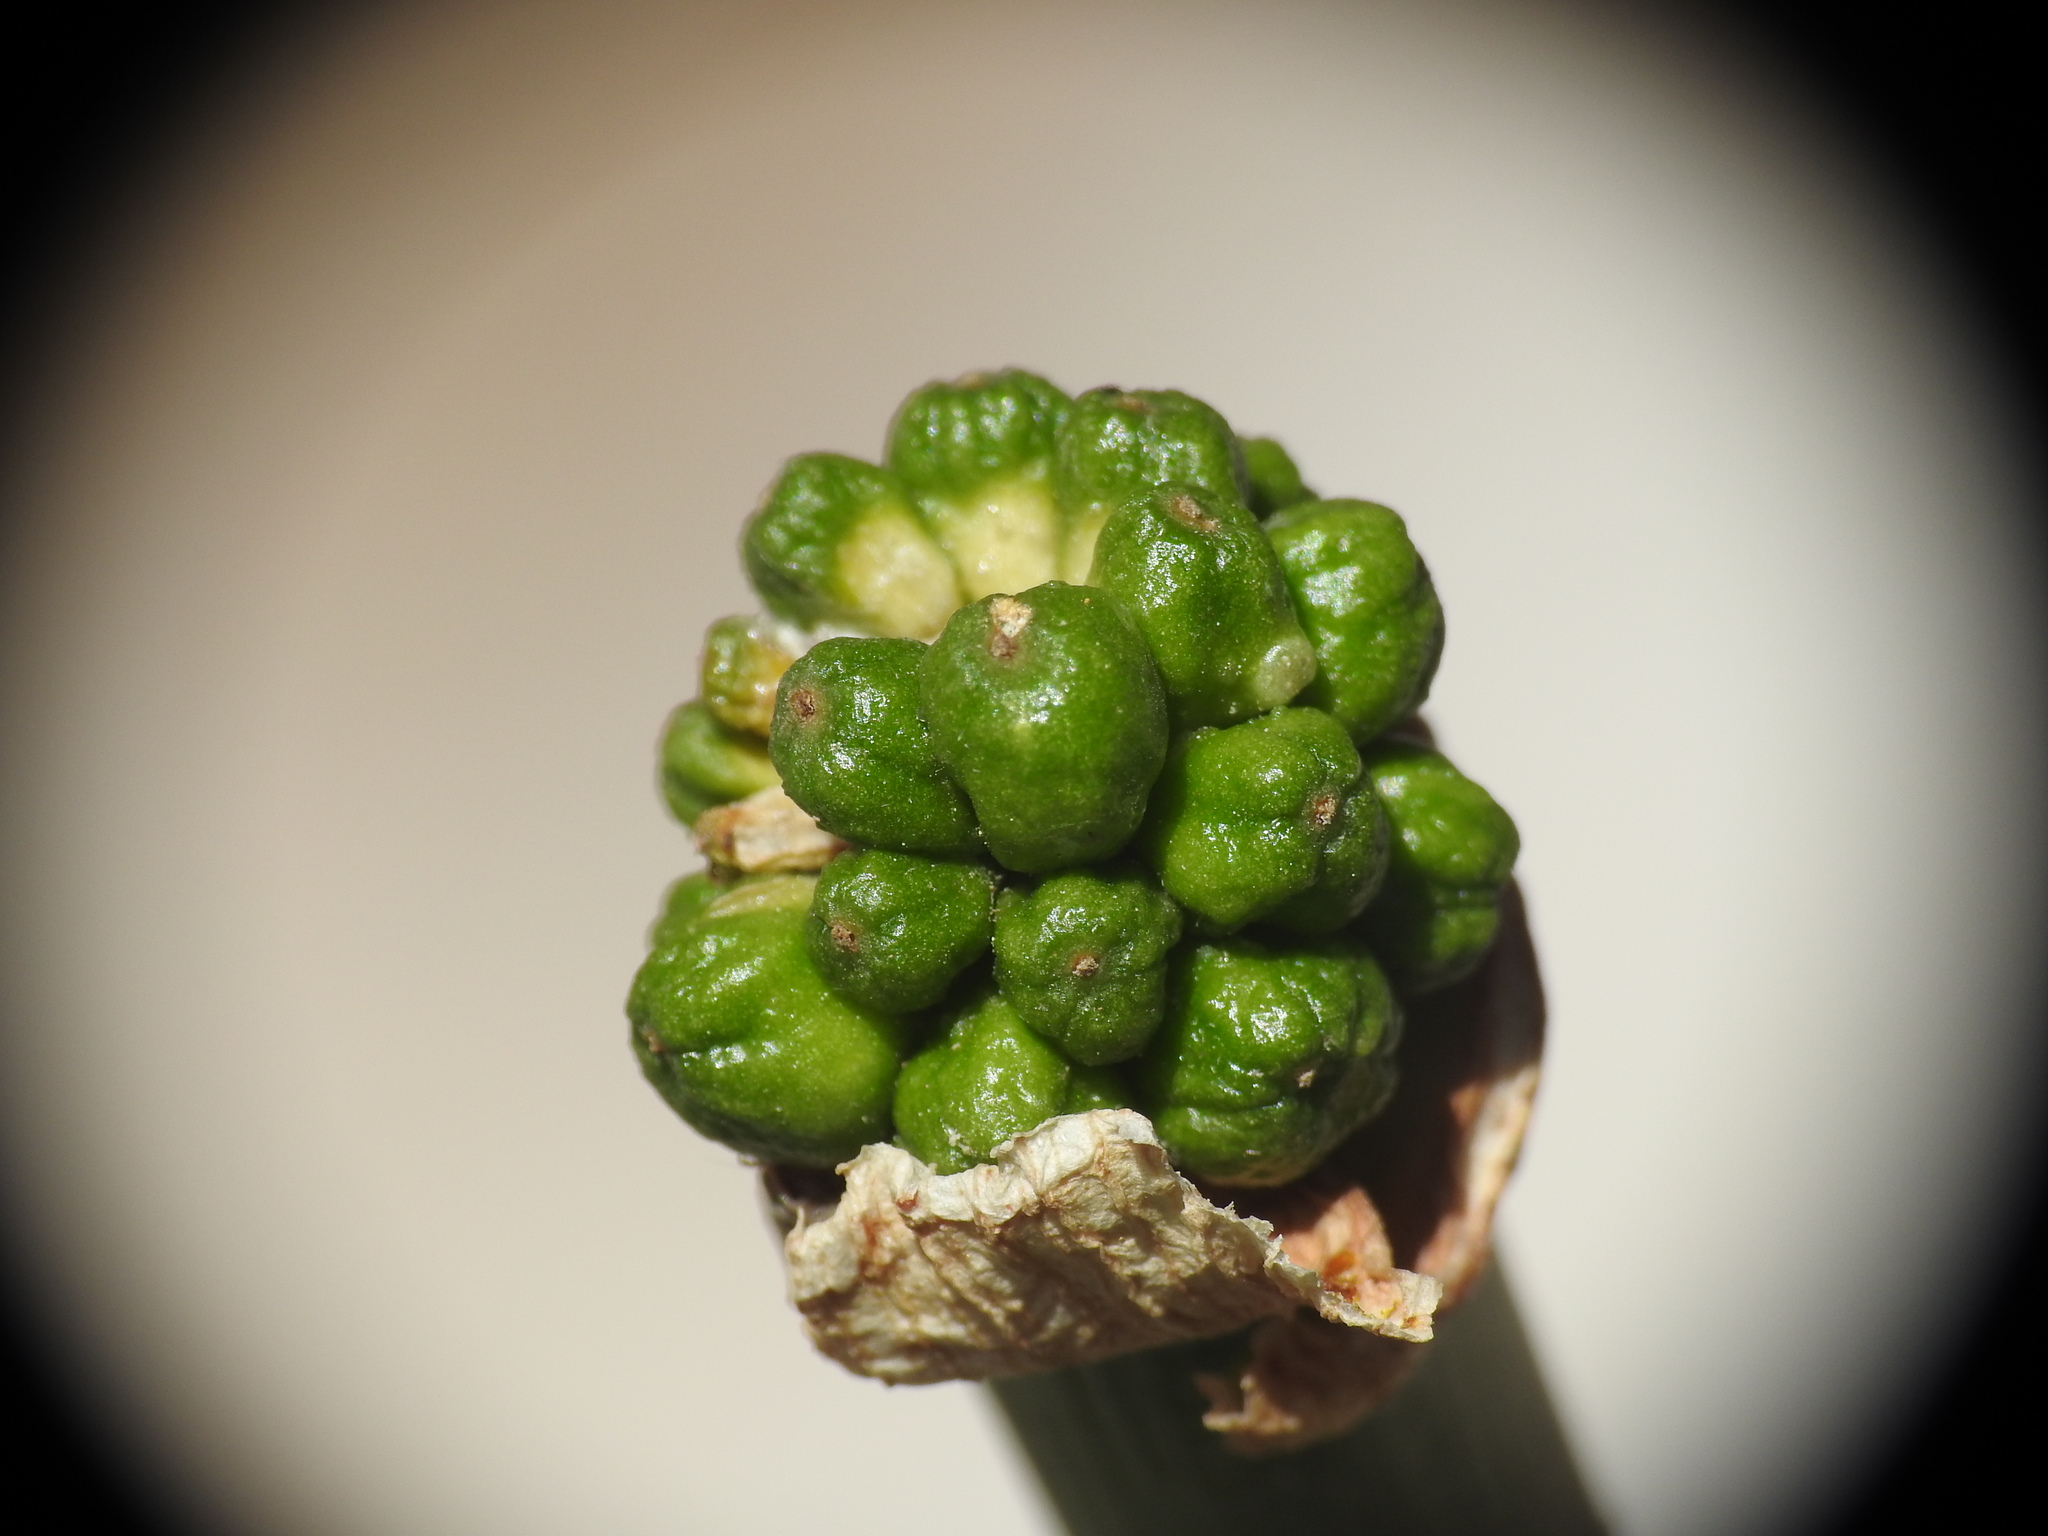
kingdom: Plantae
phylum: Tracheophyta
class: Liliopsida
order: Alismatales
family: Araceae
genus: Arum
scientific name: Arum creticum
